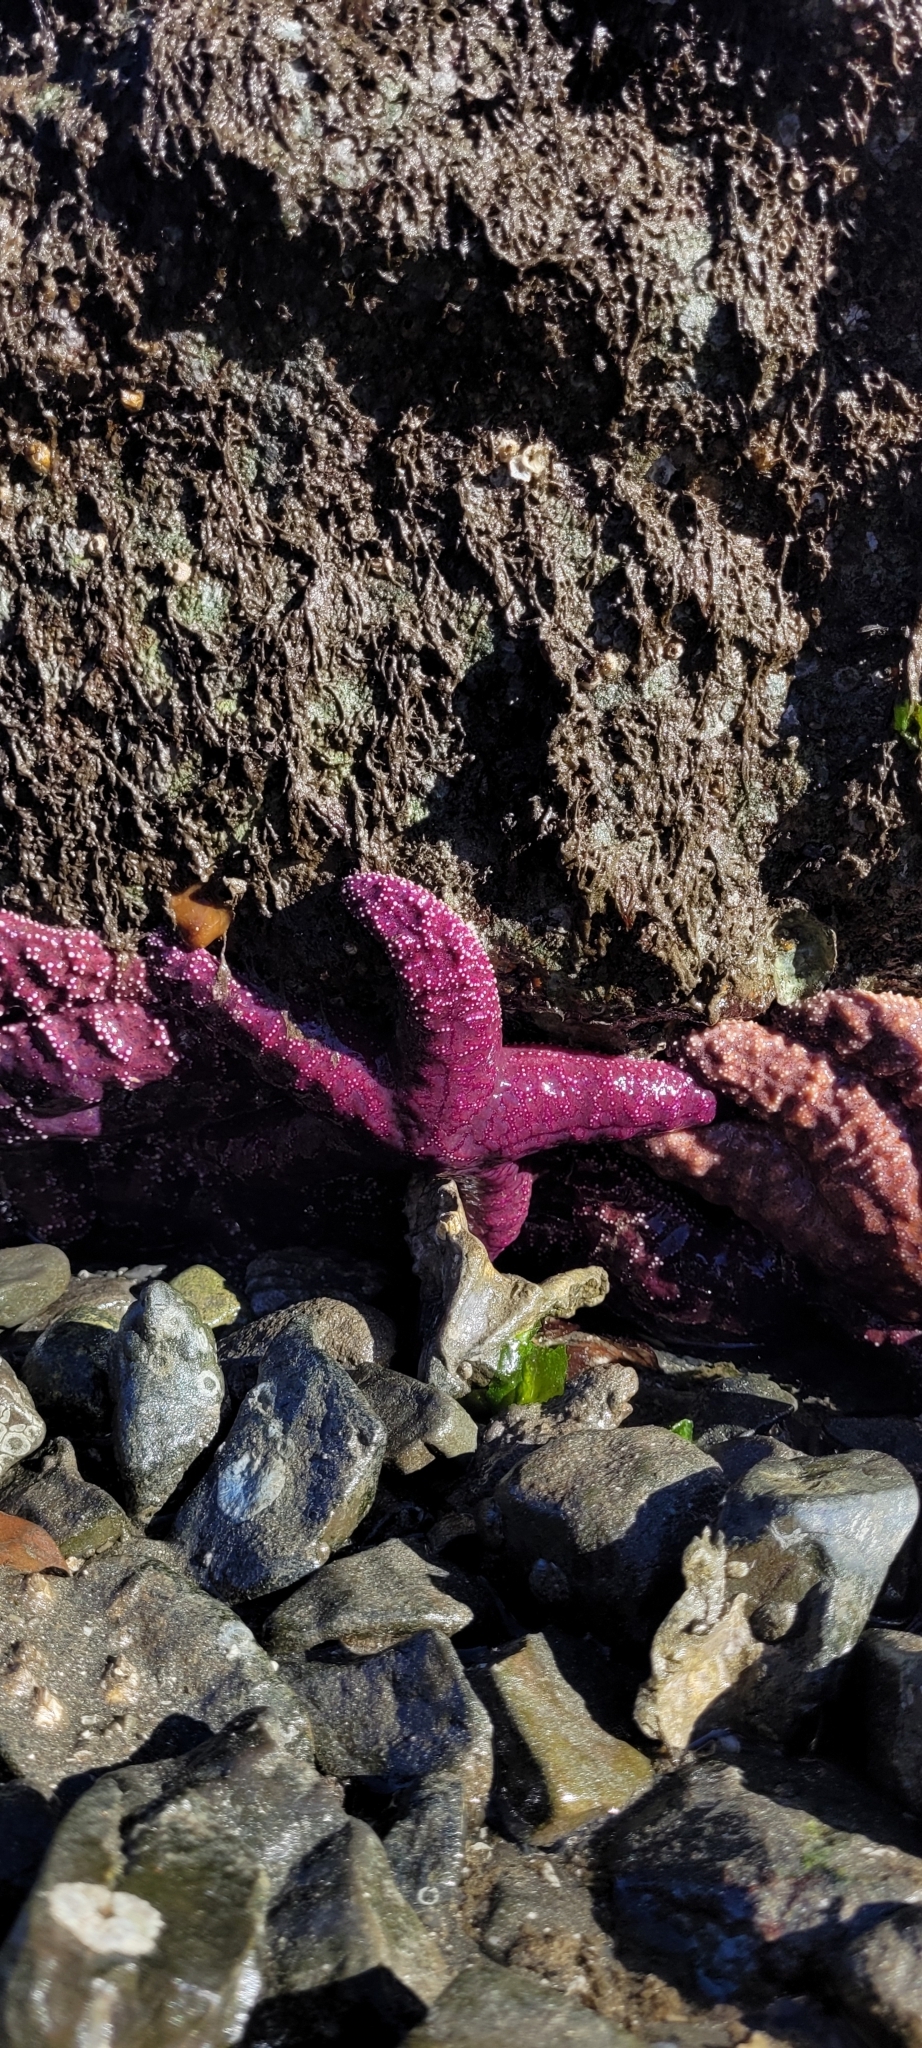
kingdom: Animalia
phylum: Echinodermata
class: Asteroidea
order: Forcipulatida
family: Asteriidae
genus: Pisaster
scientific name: Pisaster ochraceus
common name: Ochre stars
